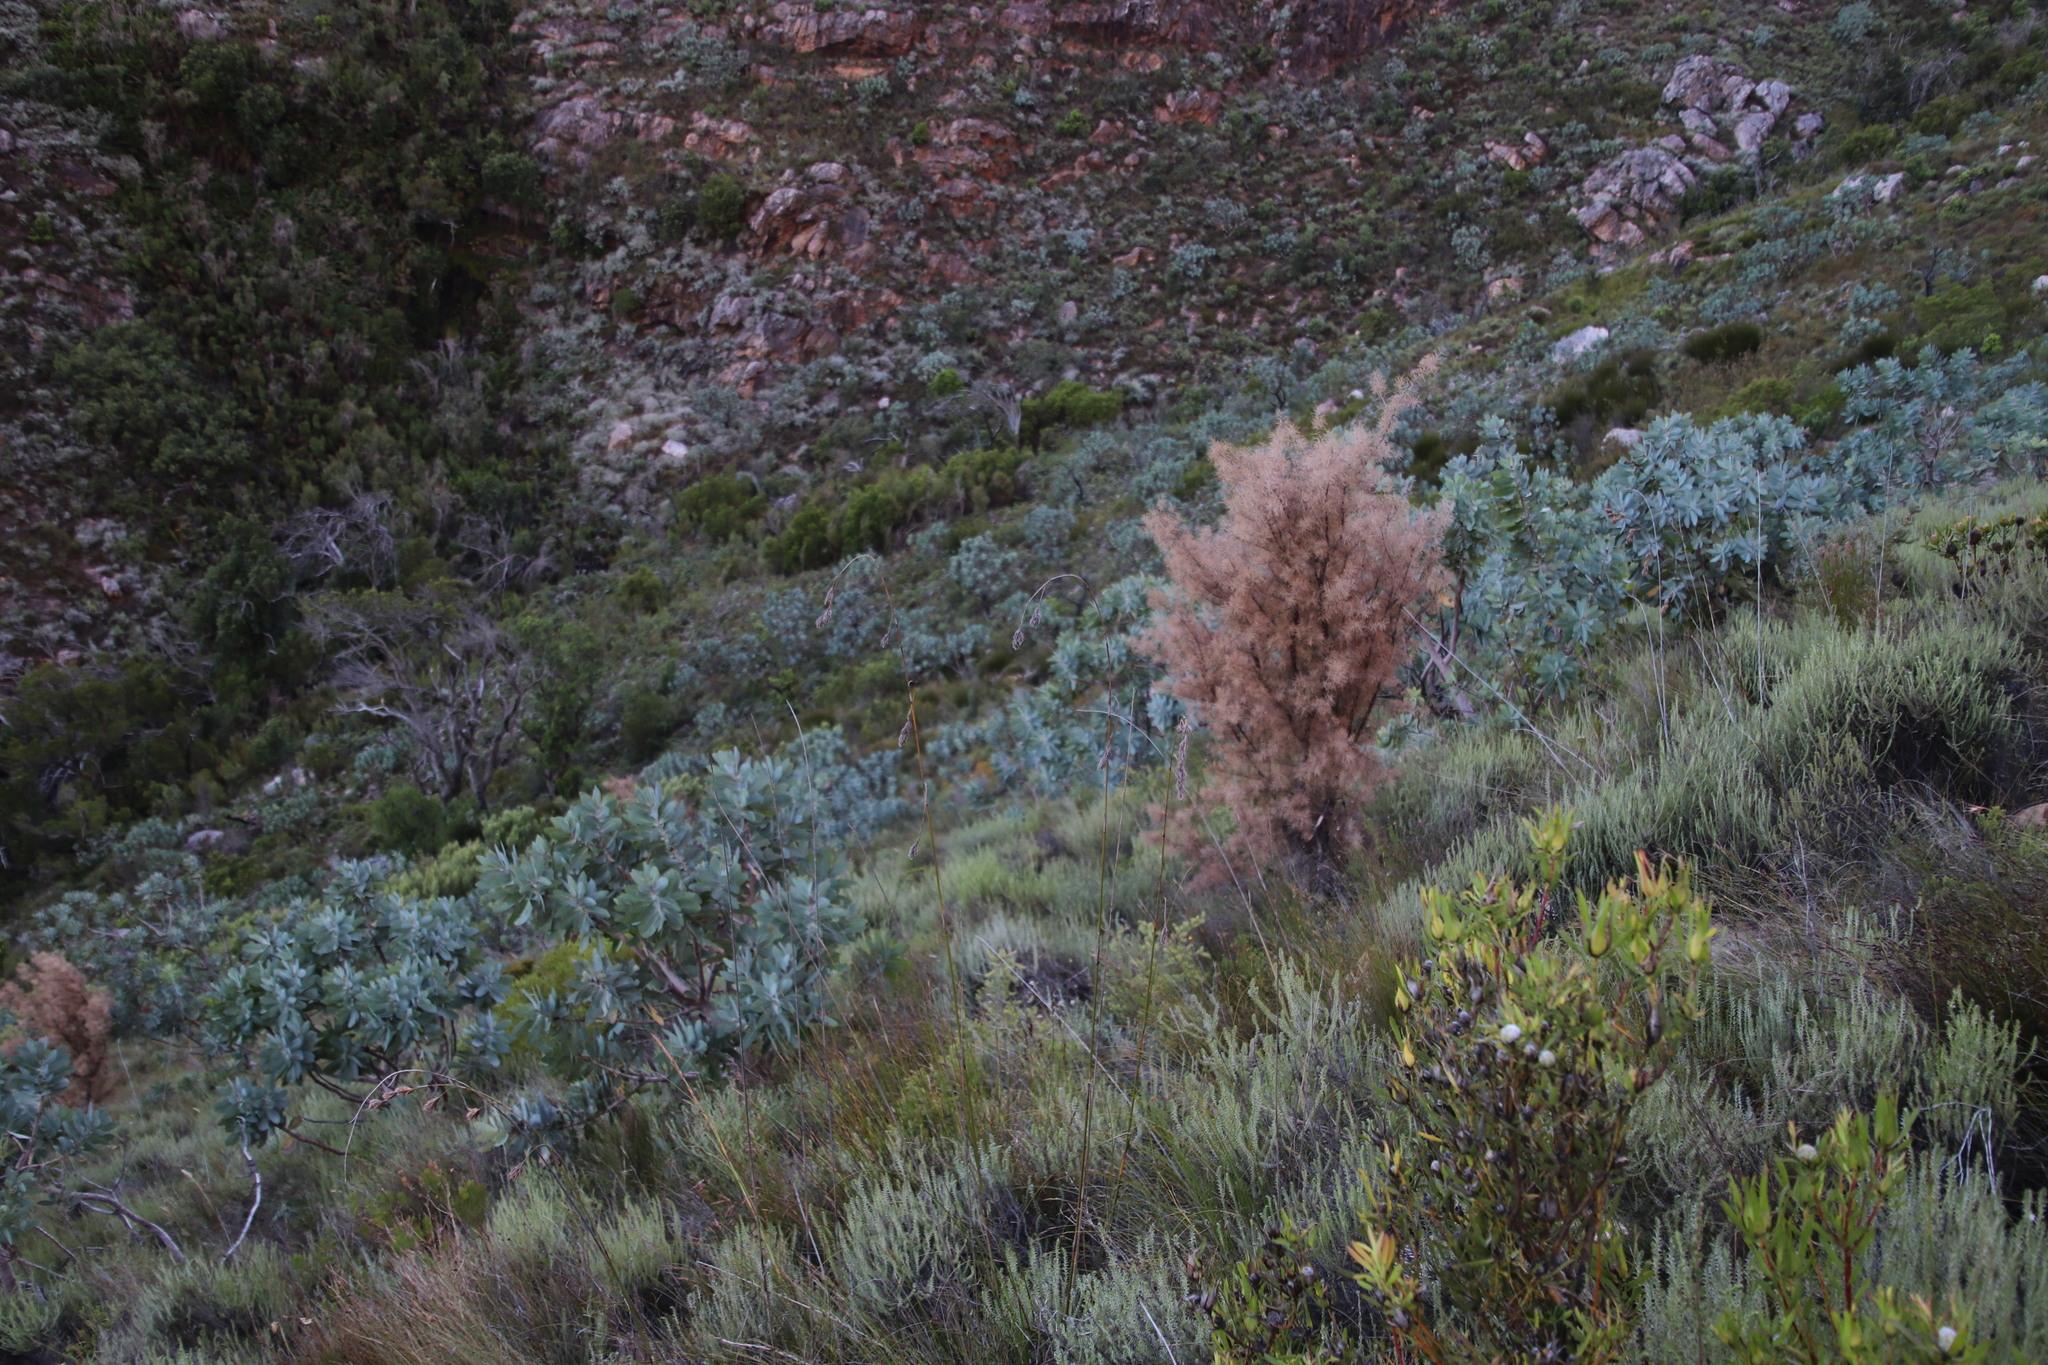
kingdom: Plantae
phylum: Tracheophyta
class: Magnoliopsida
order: Proteales
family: Proteaceae
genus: Hakea
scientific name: Hakea sericea
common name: Needle bush
